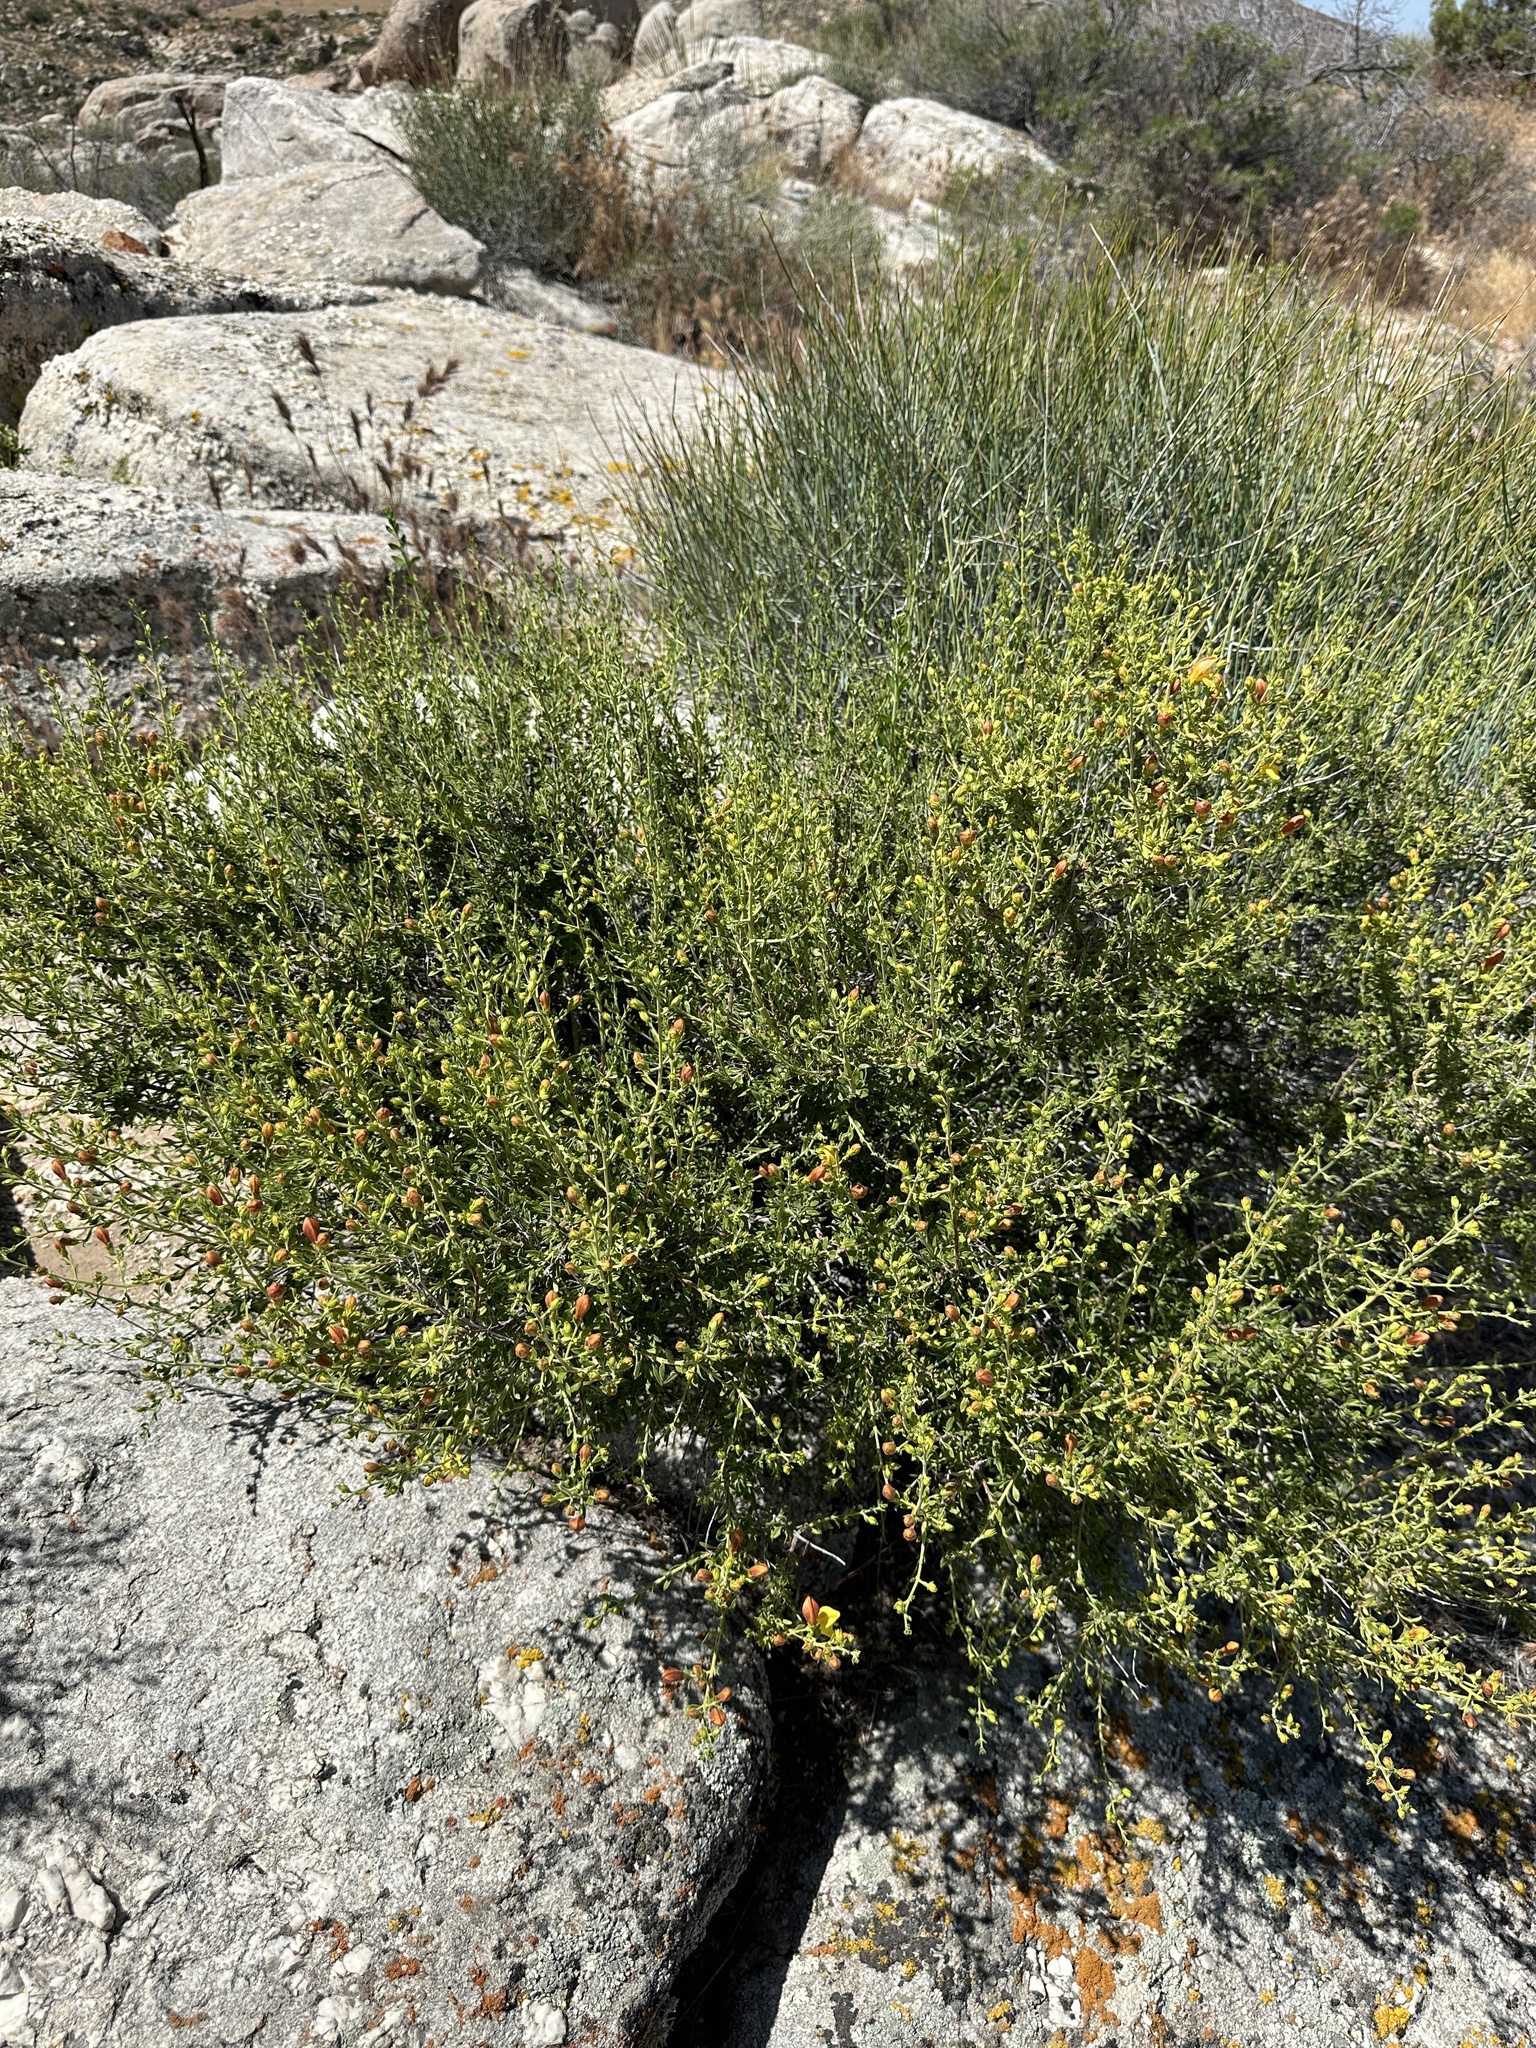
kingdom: Plantae
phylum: Tracheophyta
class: Magnoliopsida
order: Lamiales
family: Plantaginaceae
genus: Keckiella
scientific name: Keckiella antirrhinoides
